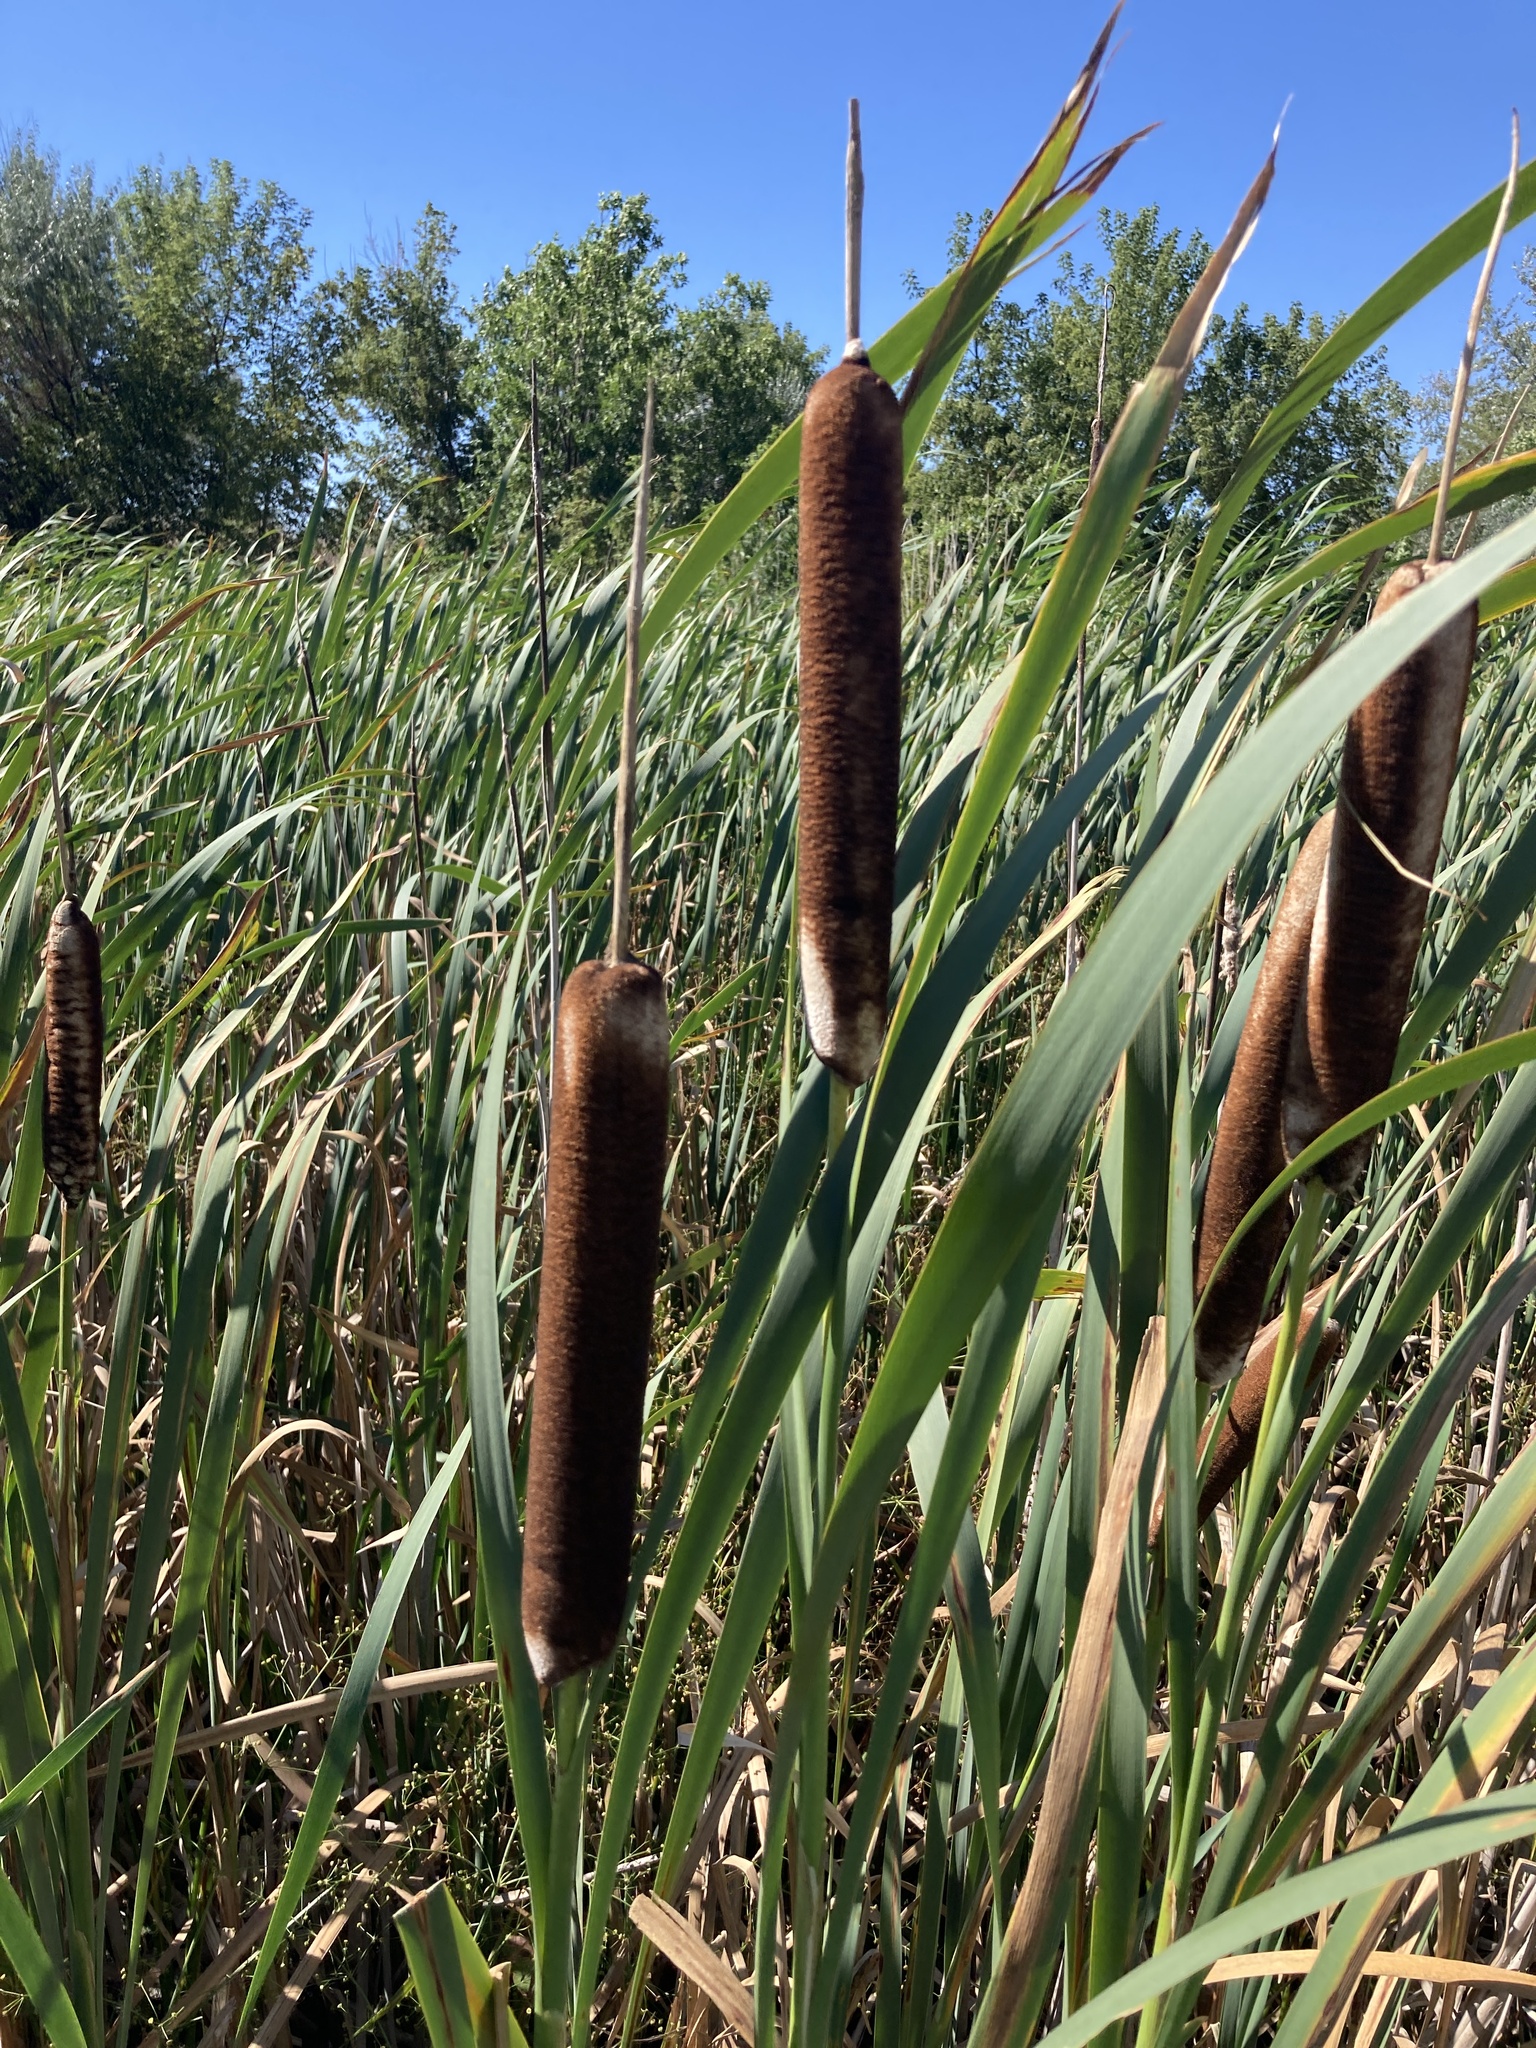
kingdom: Plantae
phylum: Tracheophyta
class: Liliopsida
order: Poales
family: Typhaceae
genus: Typha
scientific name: Typha latifolia
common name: Broadleaf cattail
